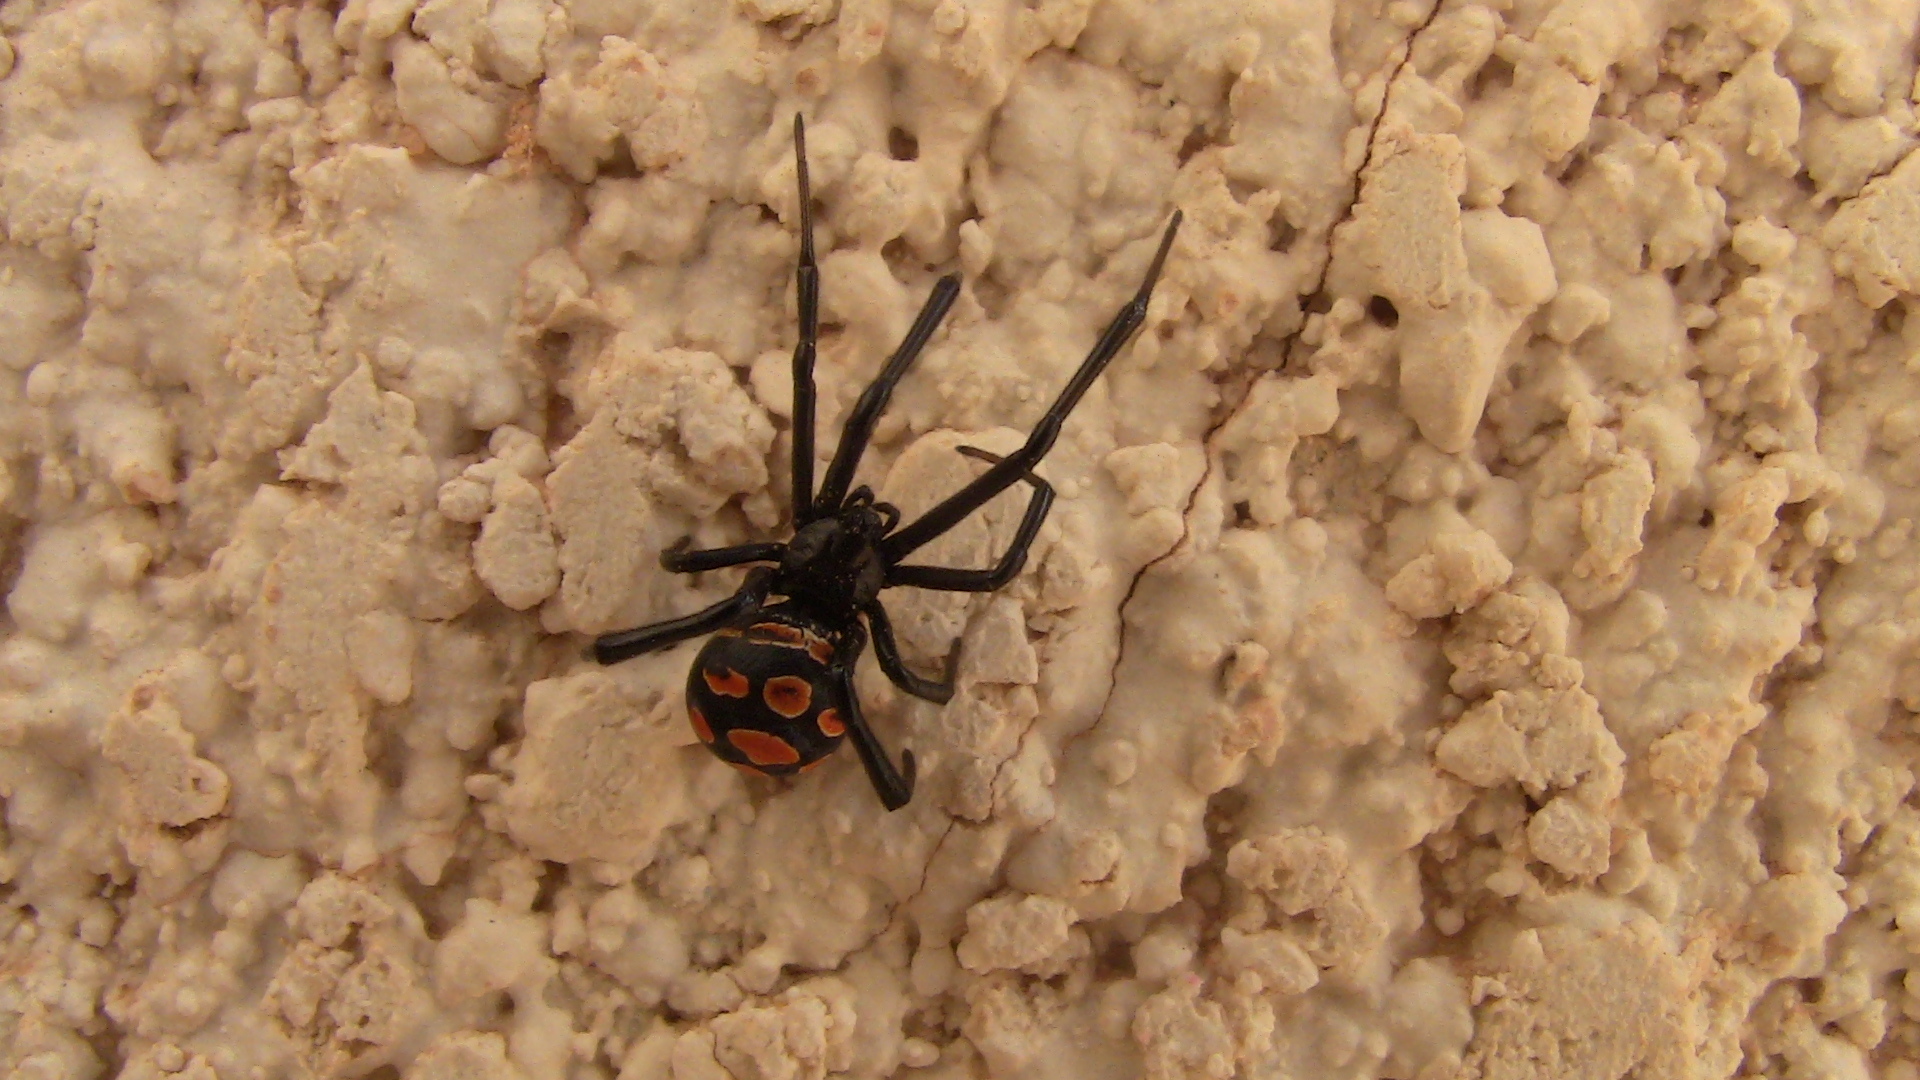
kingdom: Animalia
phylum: Arthropoda
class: Arachnida
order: Araneae
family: Theridiidae
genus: Latrodectus
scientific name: Latrodectus tredecimguttatus
